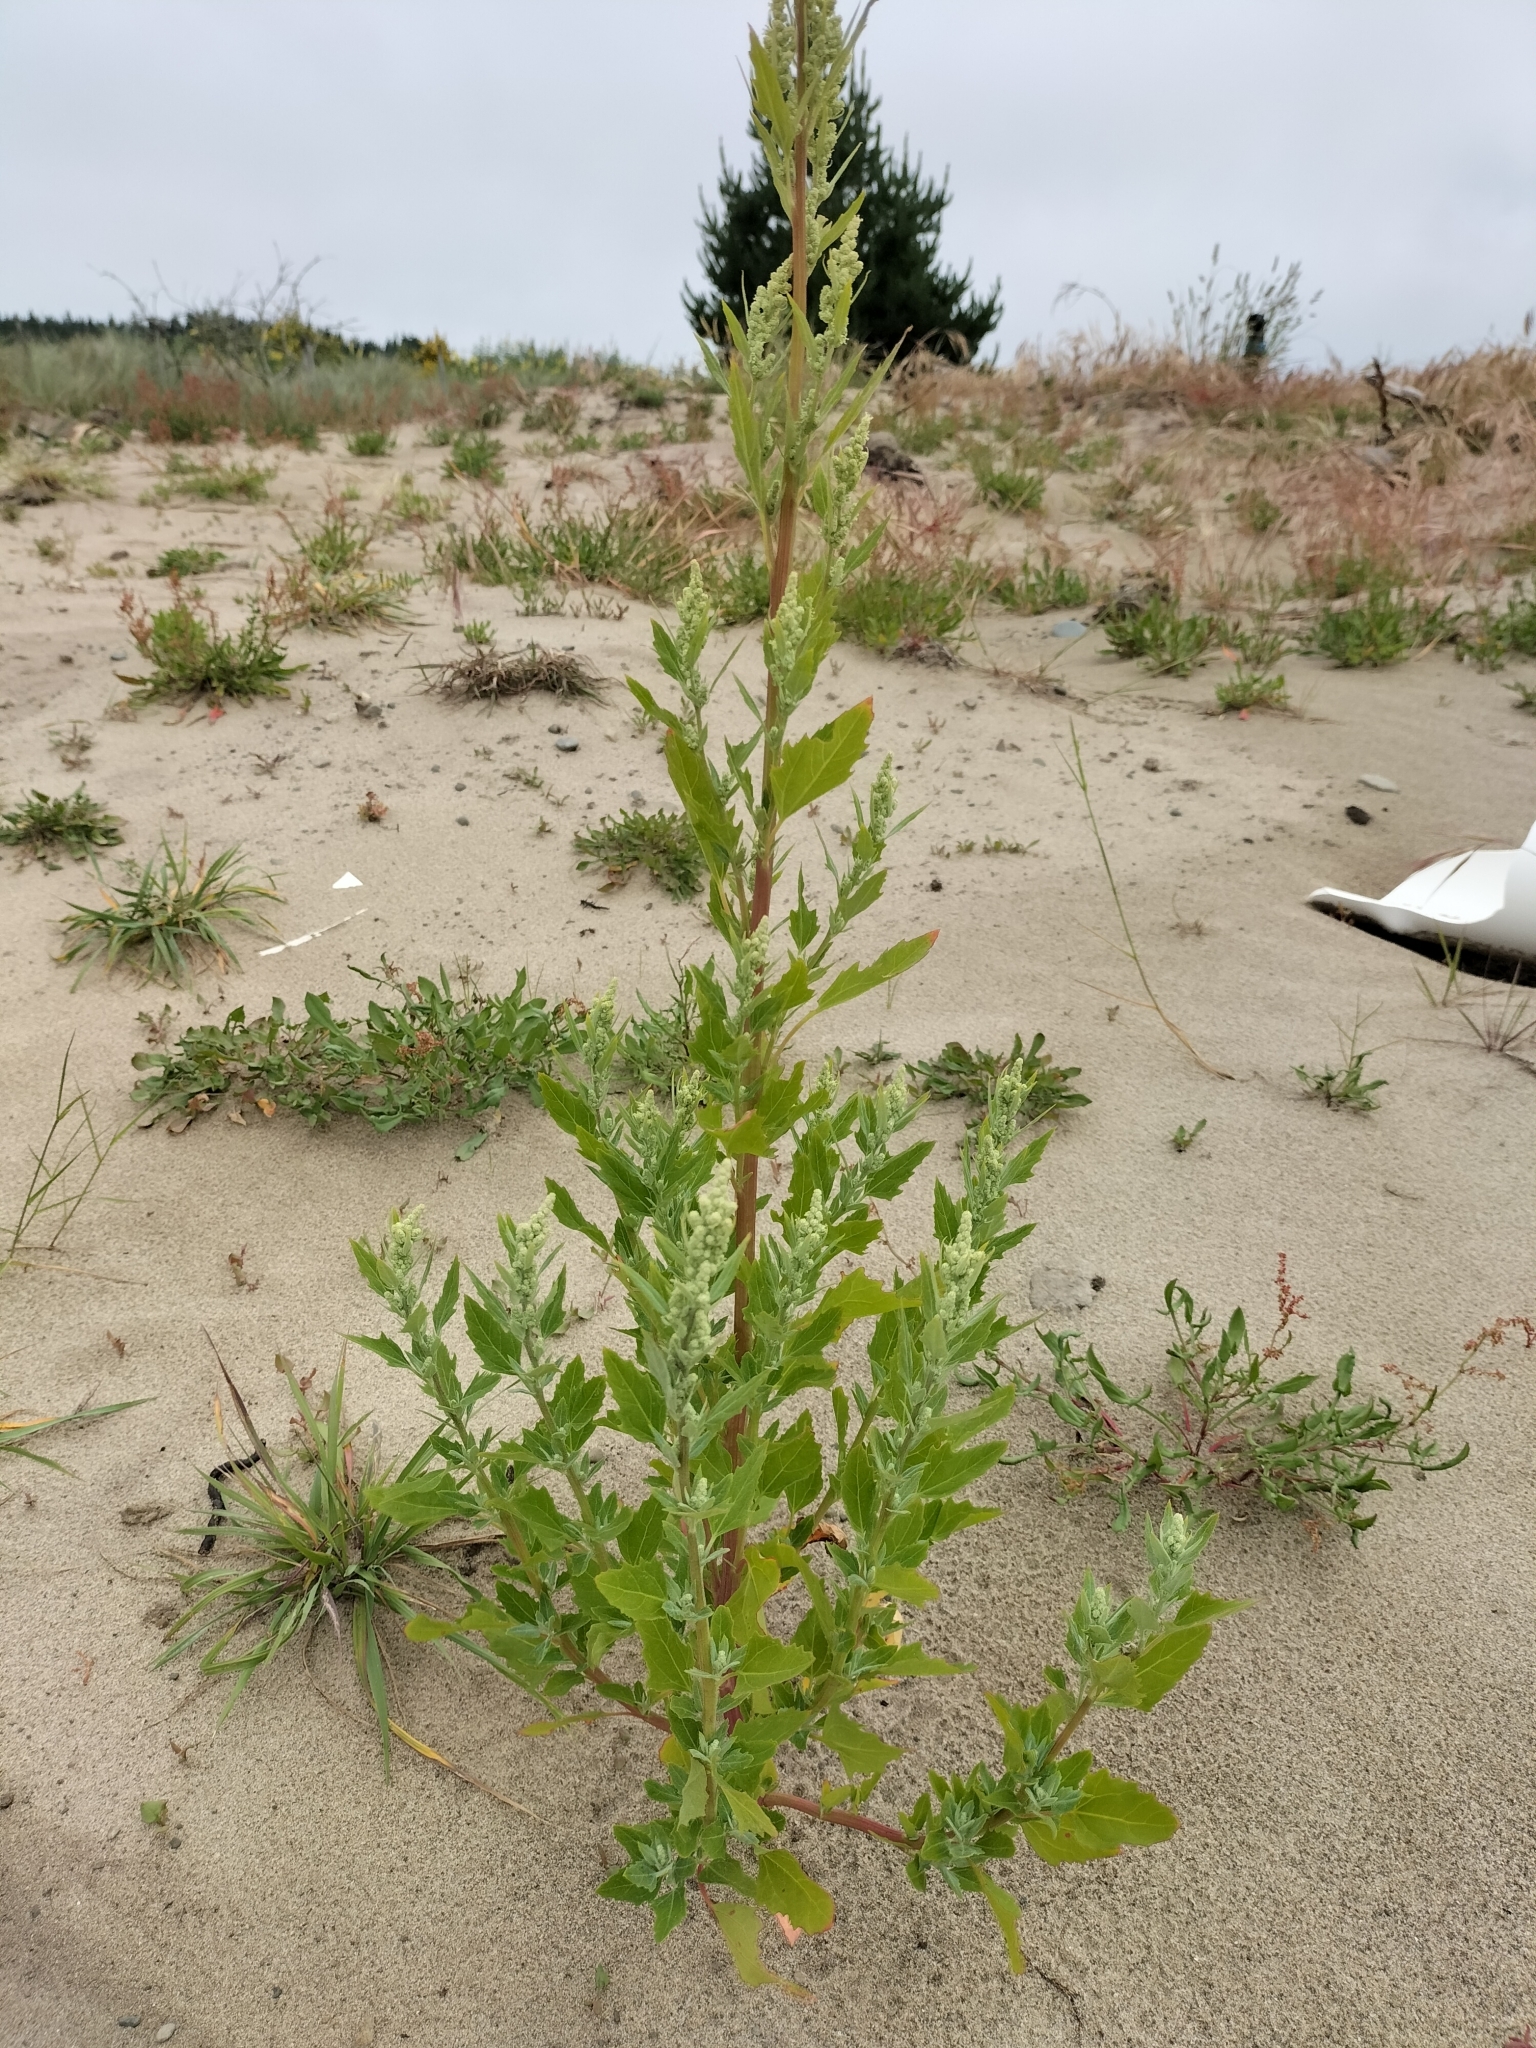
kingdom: Plantae
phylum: Tracheophyta
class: Magnoliopsida
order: Caryophyllales
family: Amaranthaceae
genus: Chenopodium
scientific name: Chenopodium album
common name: Fat-hen
